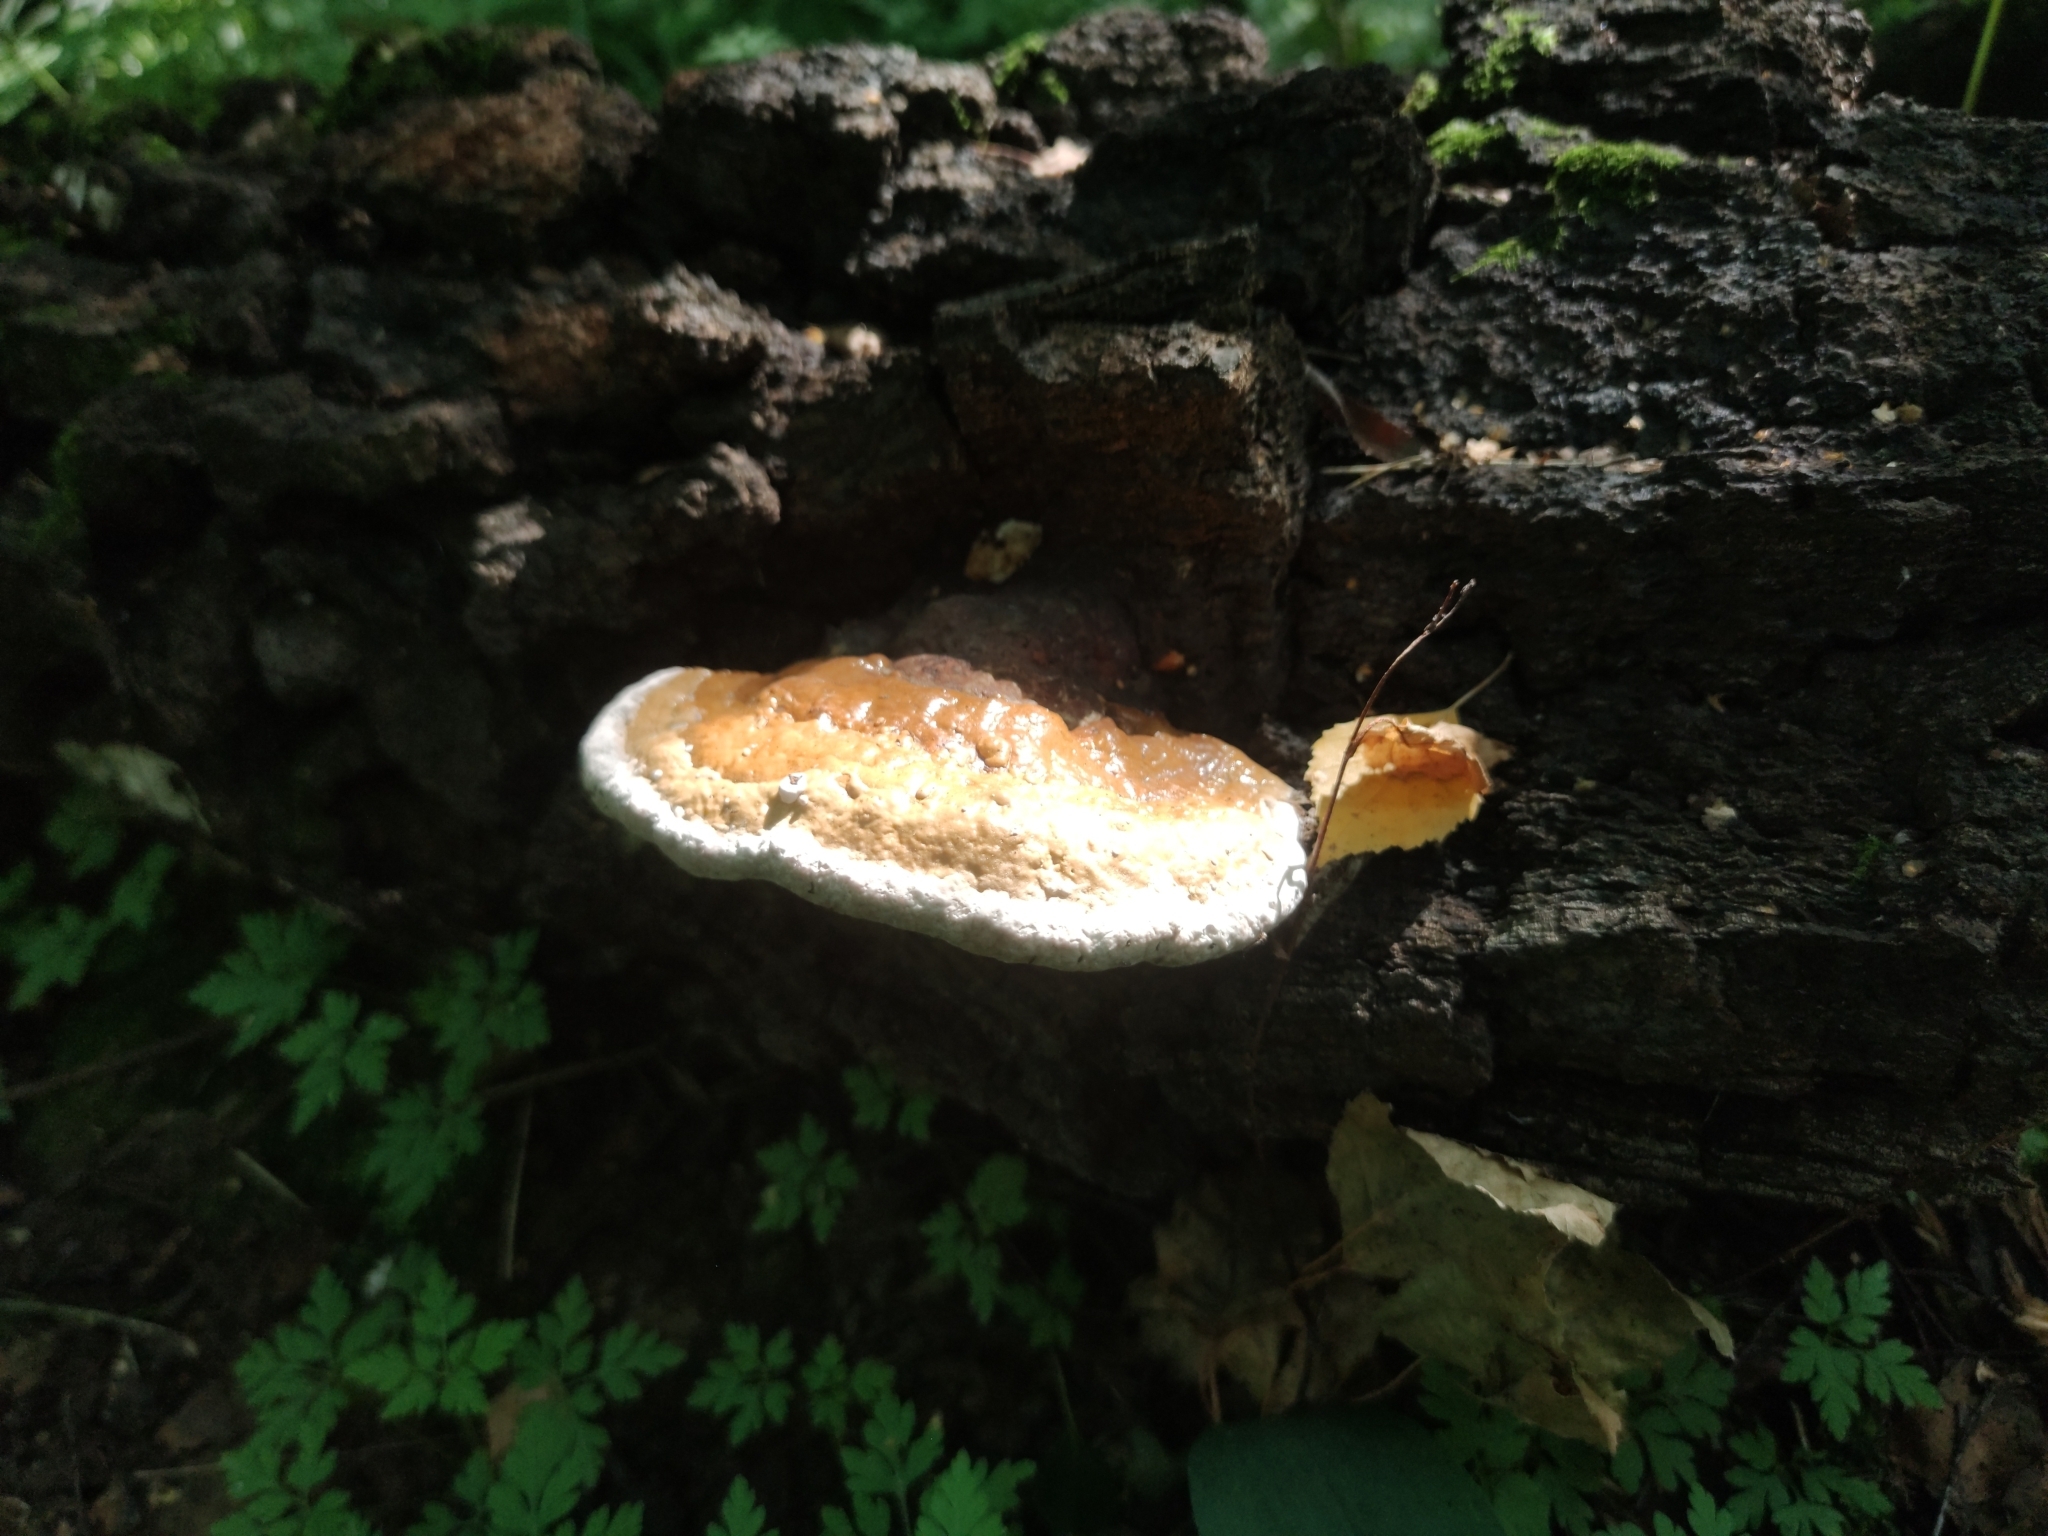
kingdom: Fungi
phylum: Basidiomycota
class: Agaricomycetes
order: Polyporales
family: Fomitopsidaceae
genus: Fomitopsis
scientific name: Fomitopsis pinicola
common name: Red-belted bracket
